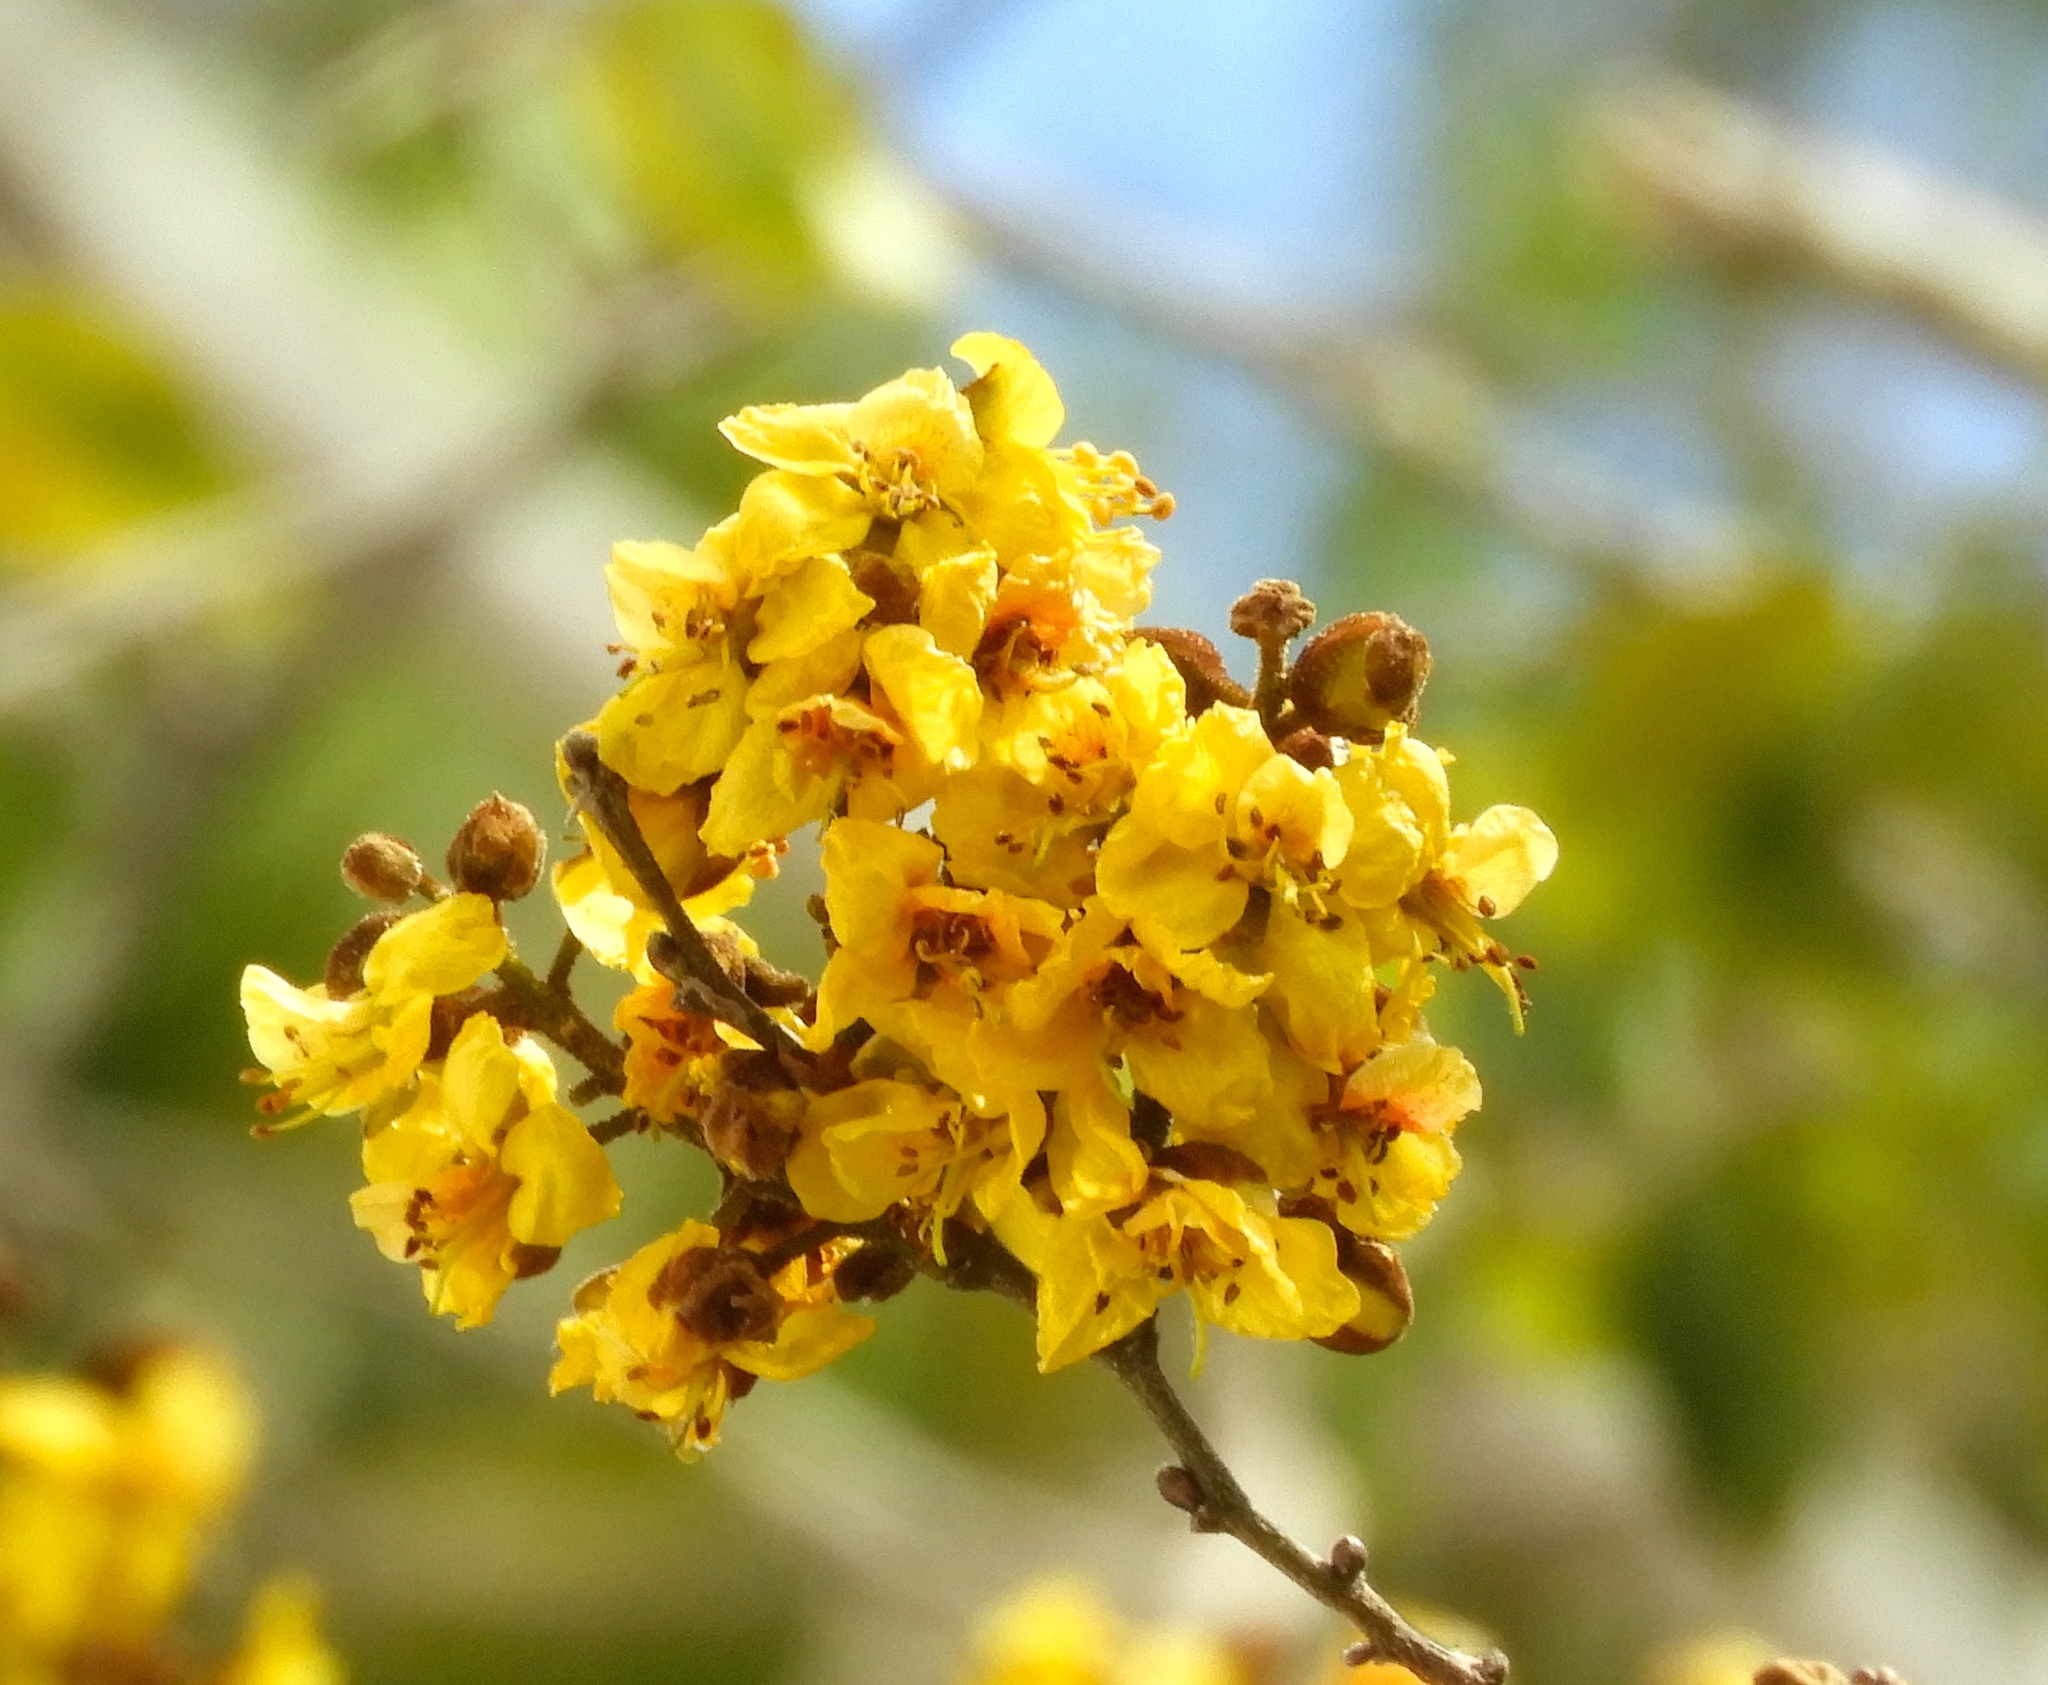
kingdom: Plantae
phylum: Tracheophyta
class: Magnoliopsida
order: Fabales
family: Fabaceae
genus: Cenostigma
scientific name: Cenostigma eriostachys
